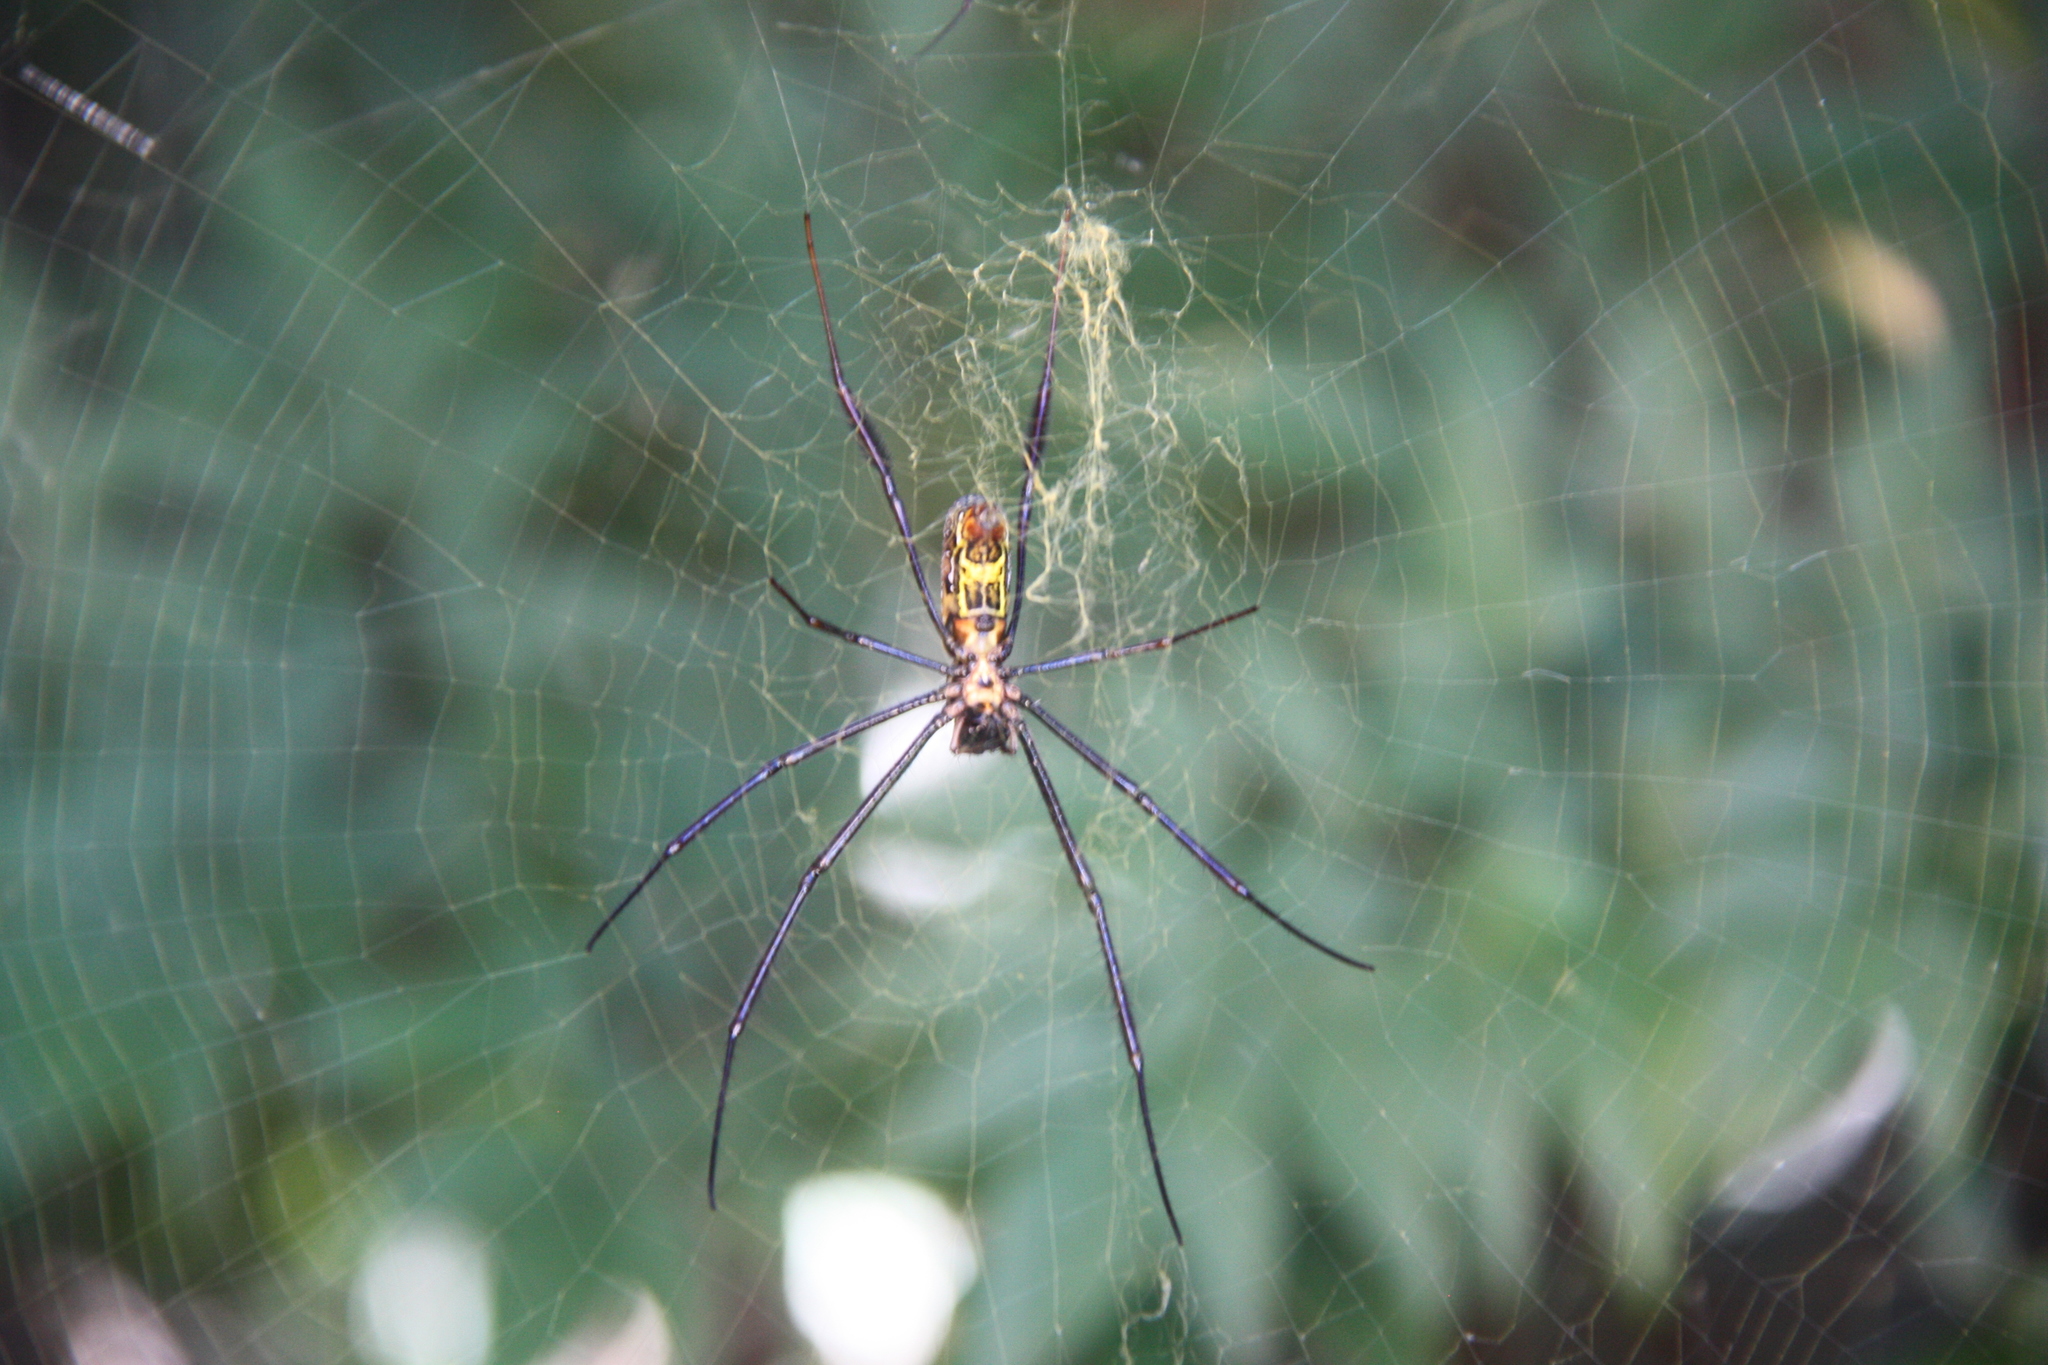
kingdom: Animalia
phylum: Arthropoda
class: Arachnida
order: Araneae
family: Araneidae
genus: Trichonephila
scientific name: Trichonephila fenestrata
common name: Hairy golden orb weaver
